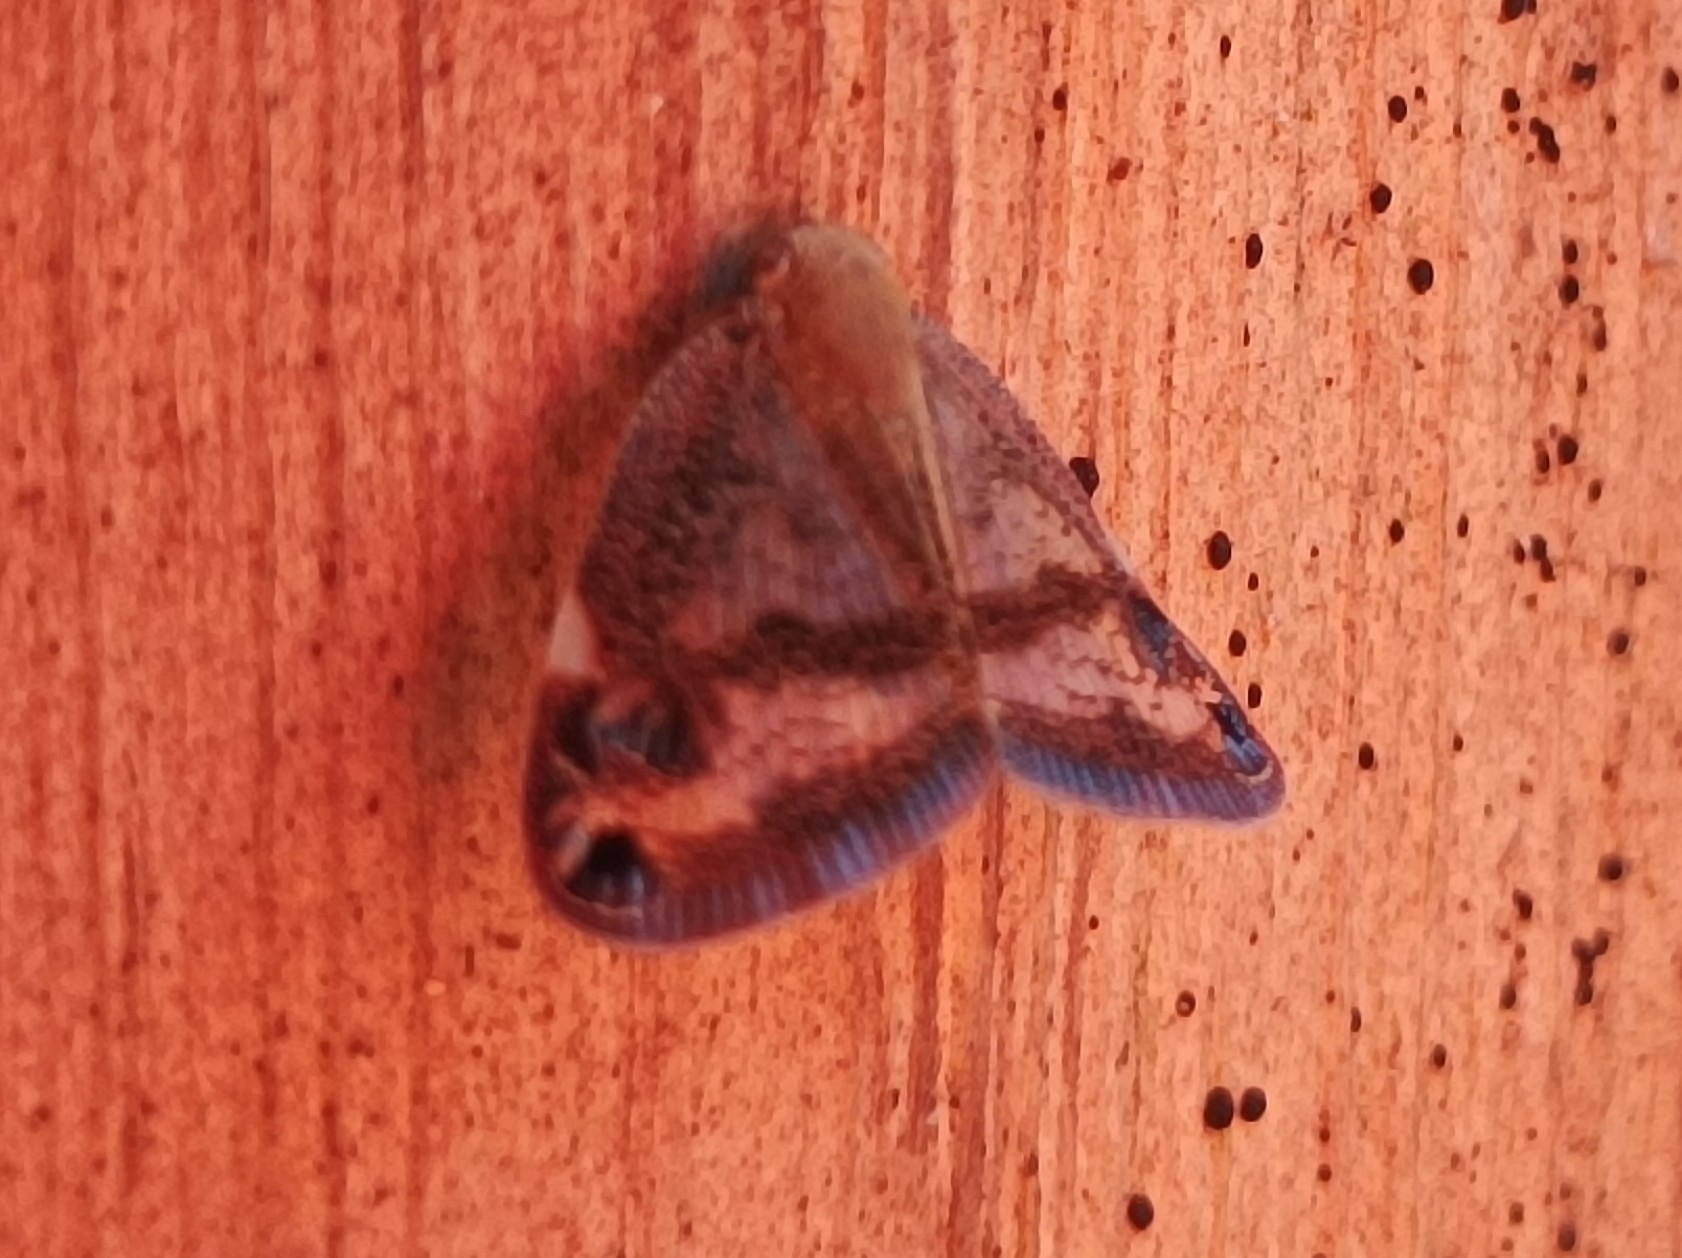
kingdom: Animalia
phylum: Arthropoda
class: Insecta
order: Hemiptera
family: Ricaniidae
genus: Parapiromis
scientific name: Parapiromis translucida
